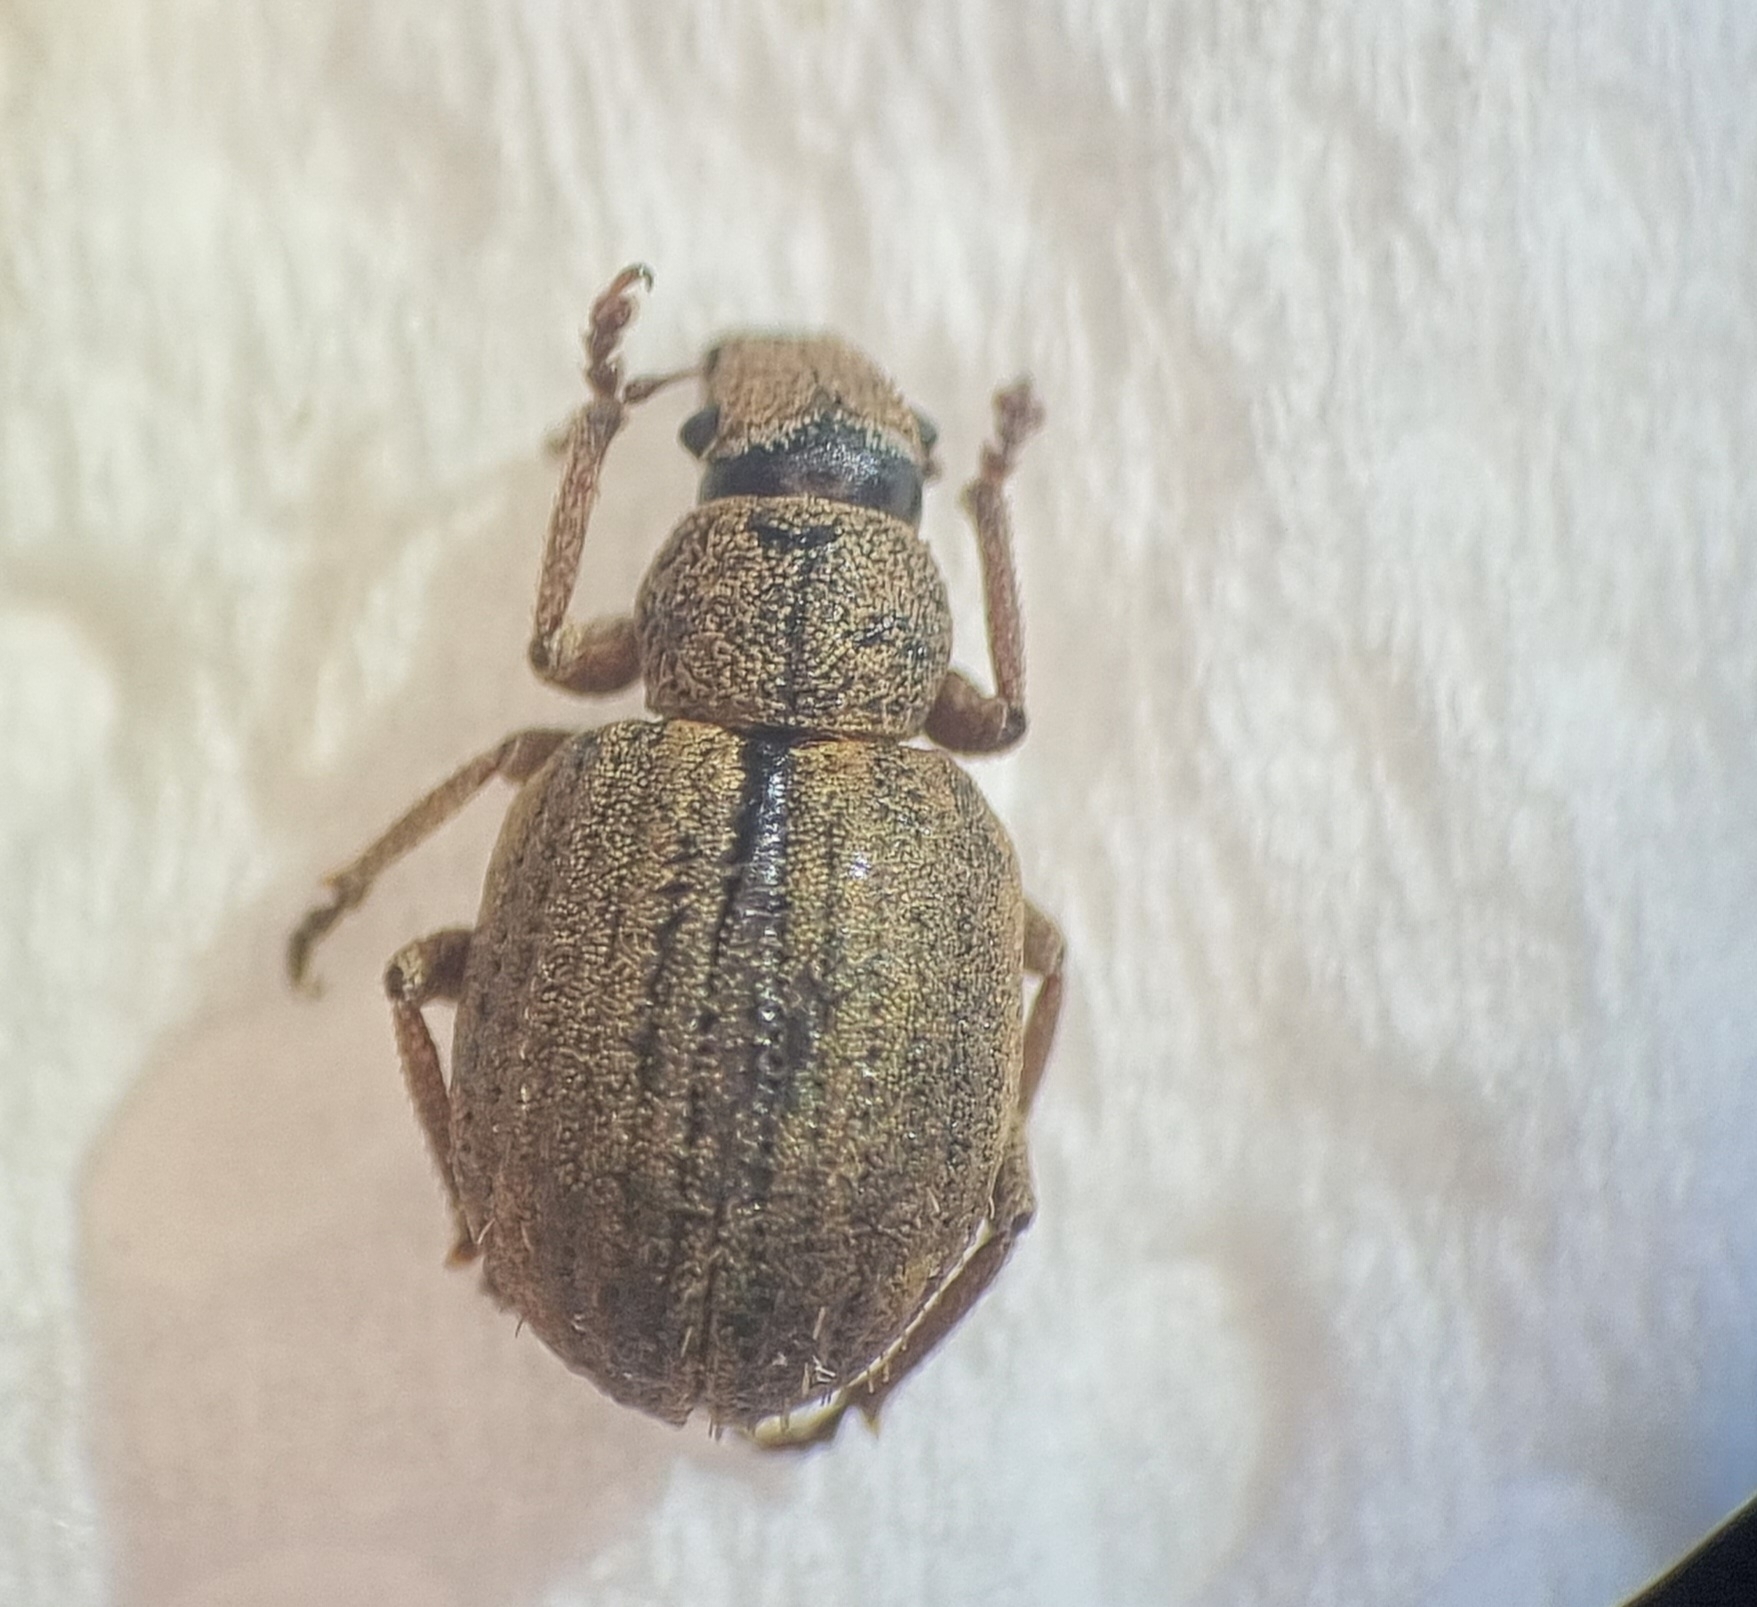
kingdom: Animalia
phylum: Arthropoda
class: Insecta
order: Coleoptera
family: Curculionidae
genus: Strophosoma
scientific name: Strophosoma melanogrammum
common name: Weevil
